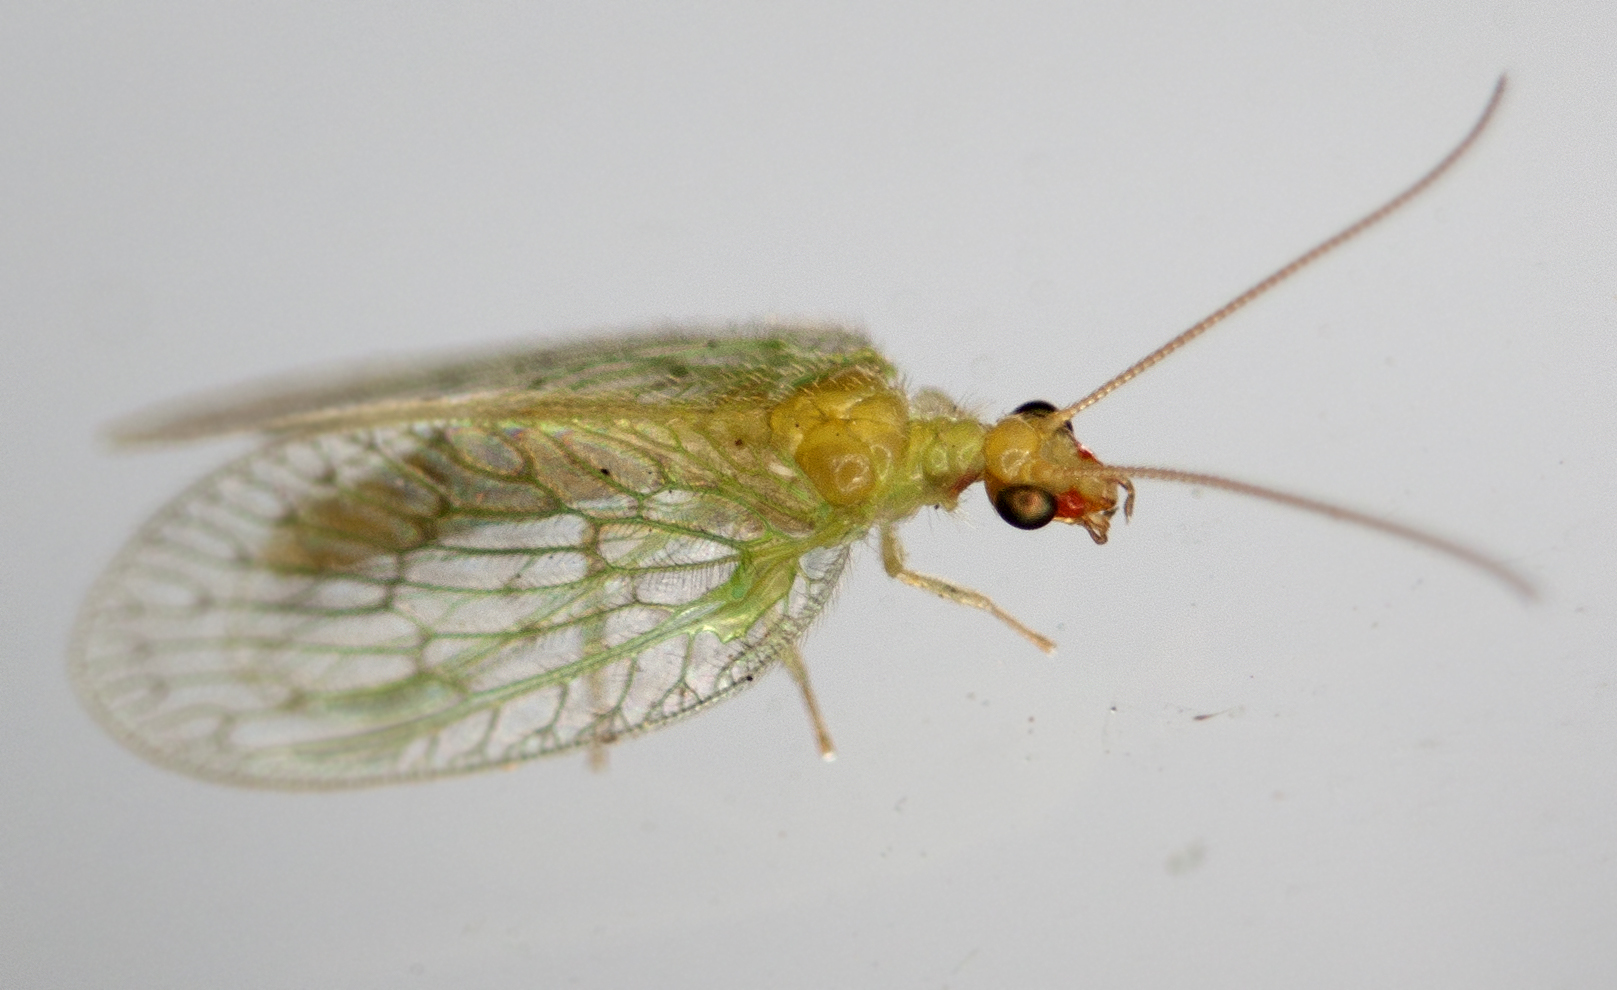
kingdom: Animalia
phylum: Arthropoda
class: Insecta
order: Neuroptera
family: Hemerobiidae
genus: Notiobiella
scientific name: Notiobiella viridis
